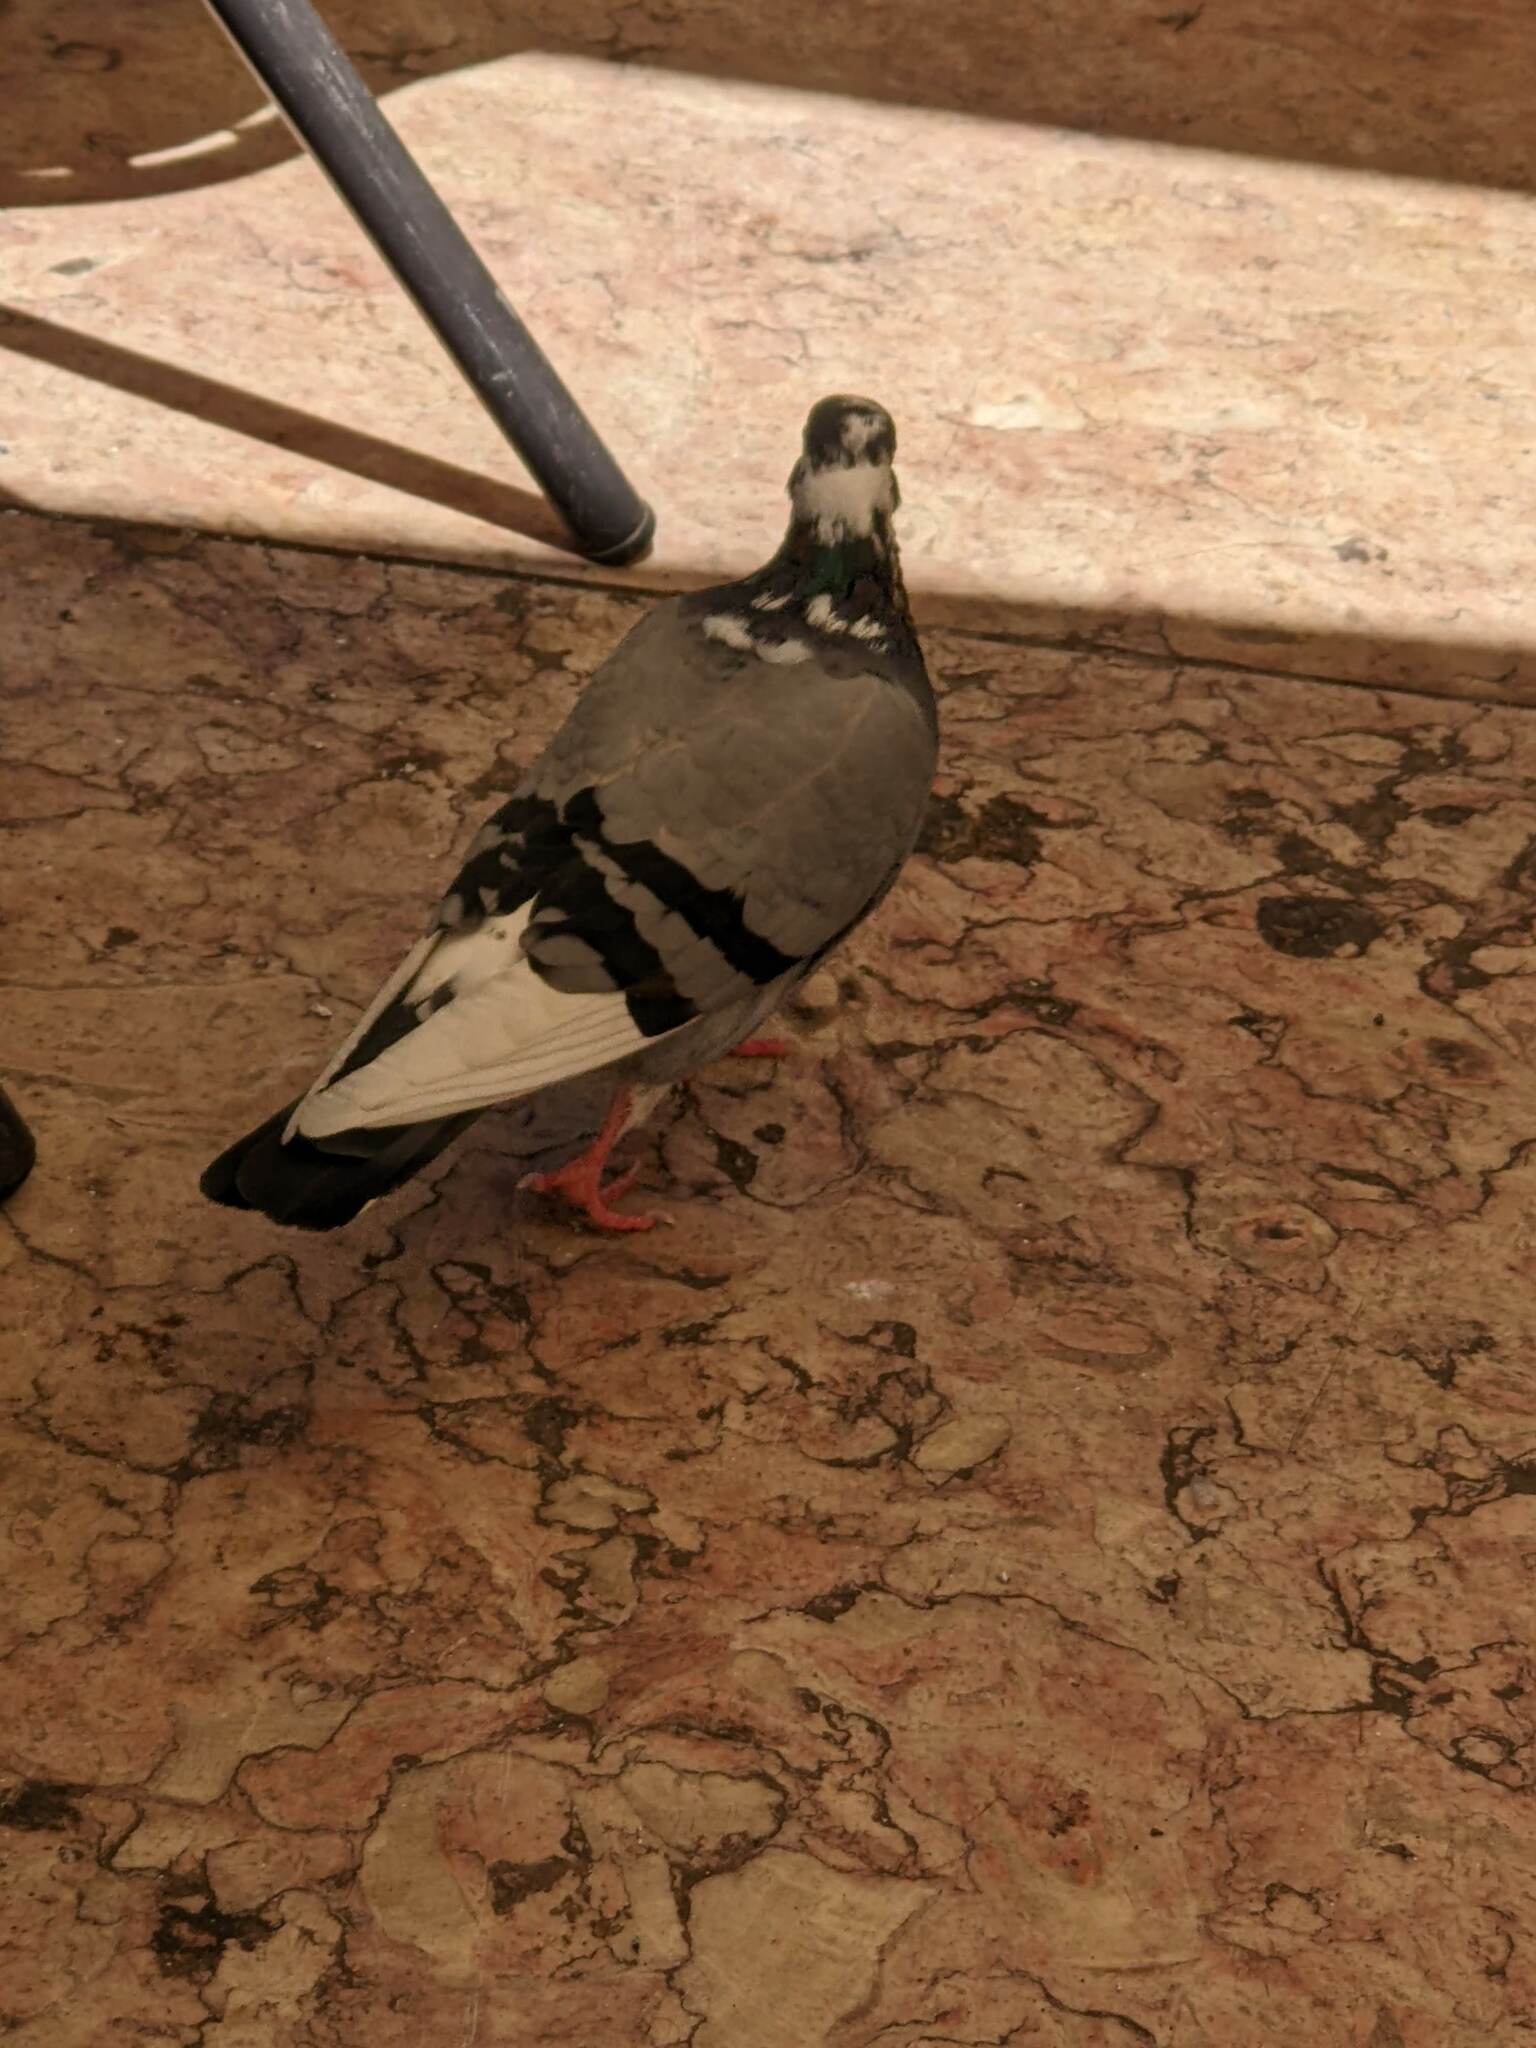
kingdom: Animalia
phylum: Chordata
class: Aves
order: Columbiformes
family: Columbidae
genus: Columba
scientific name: Columba livia
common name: Rock pigeon
